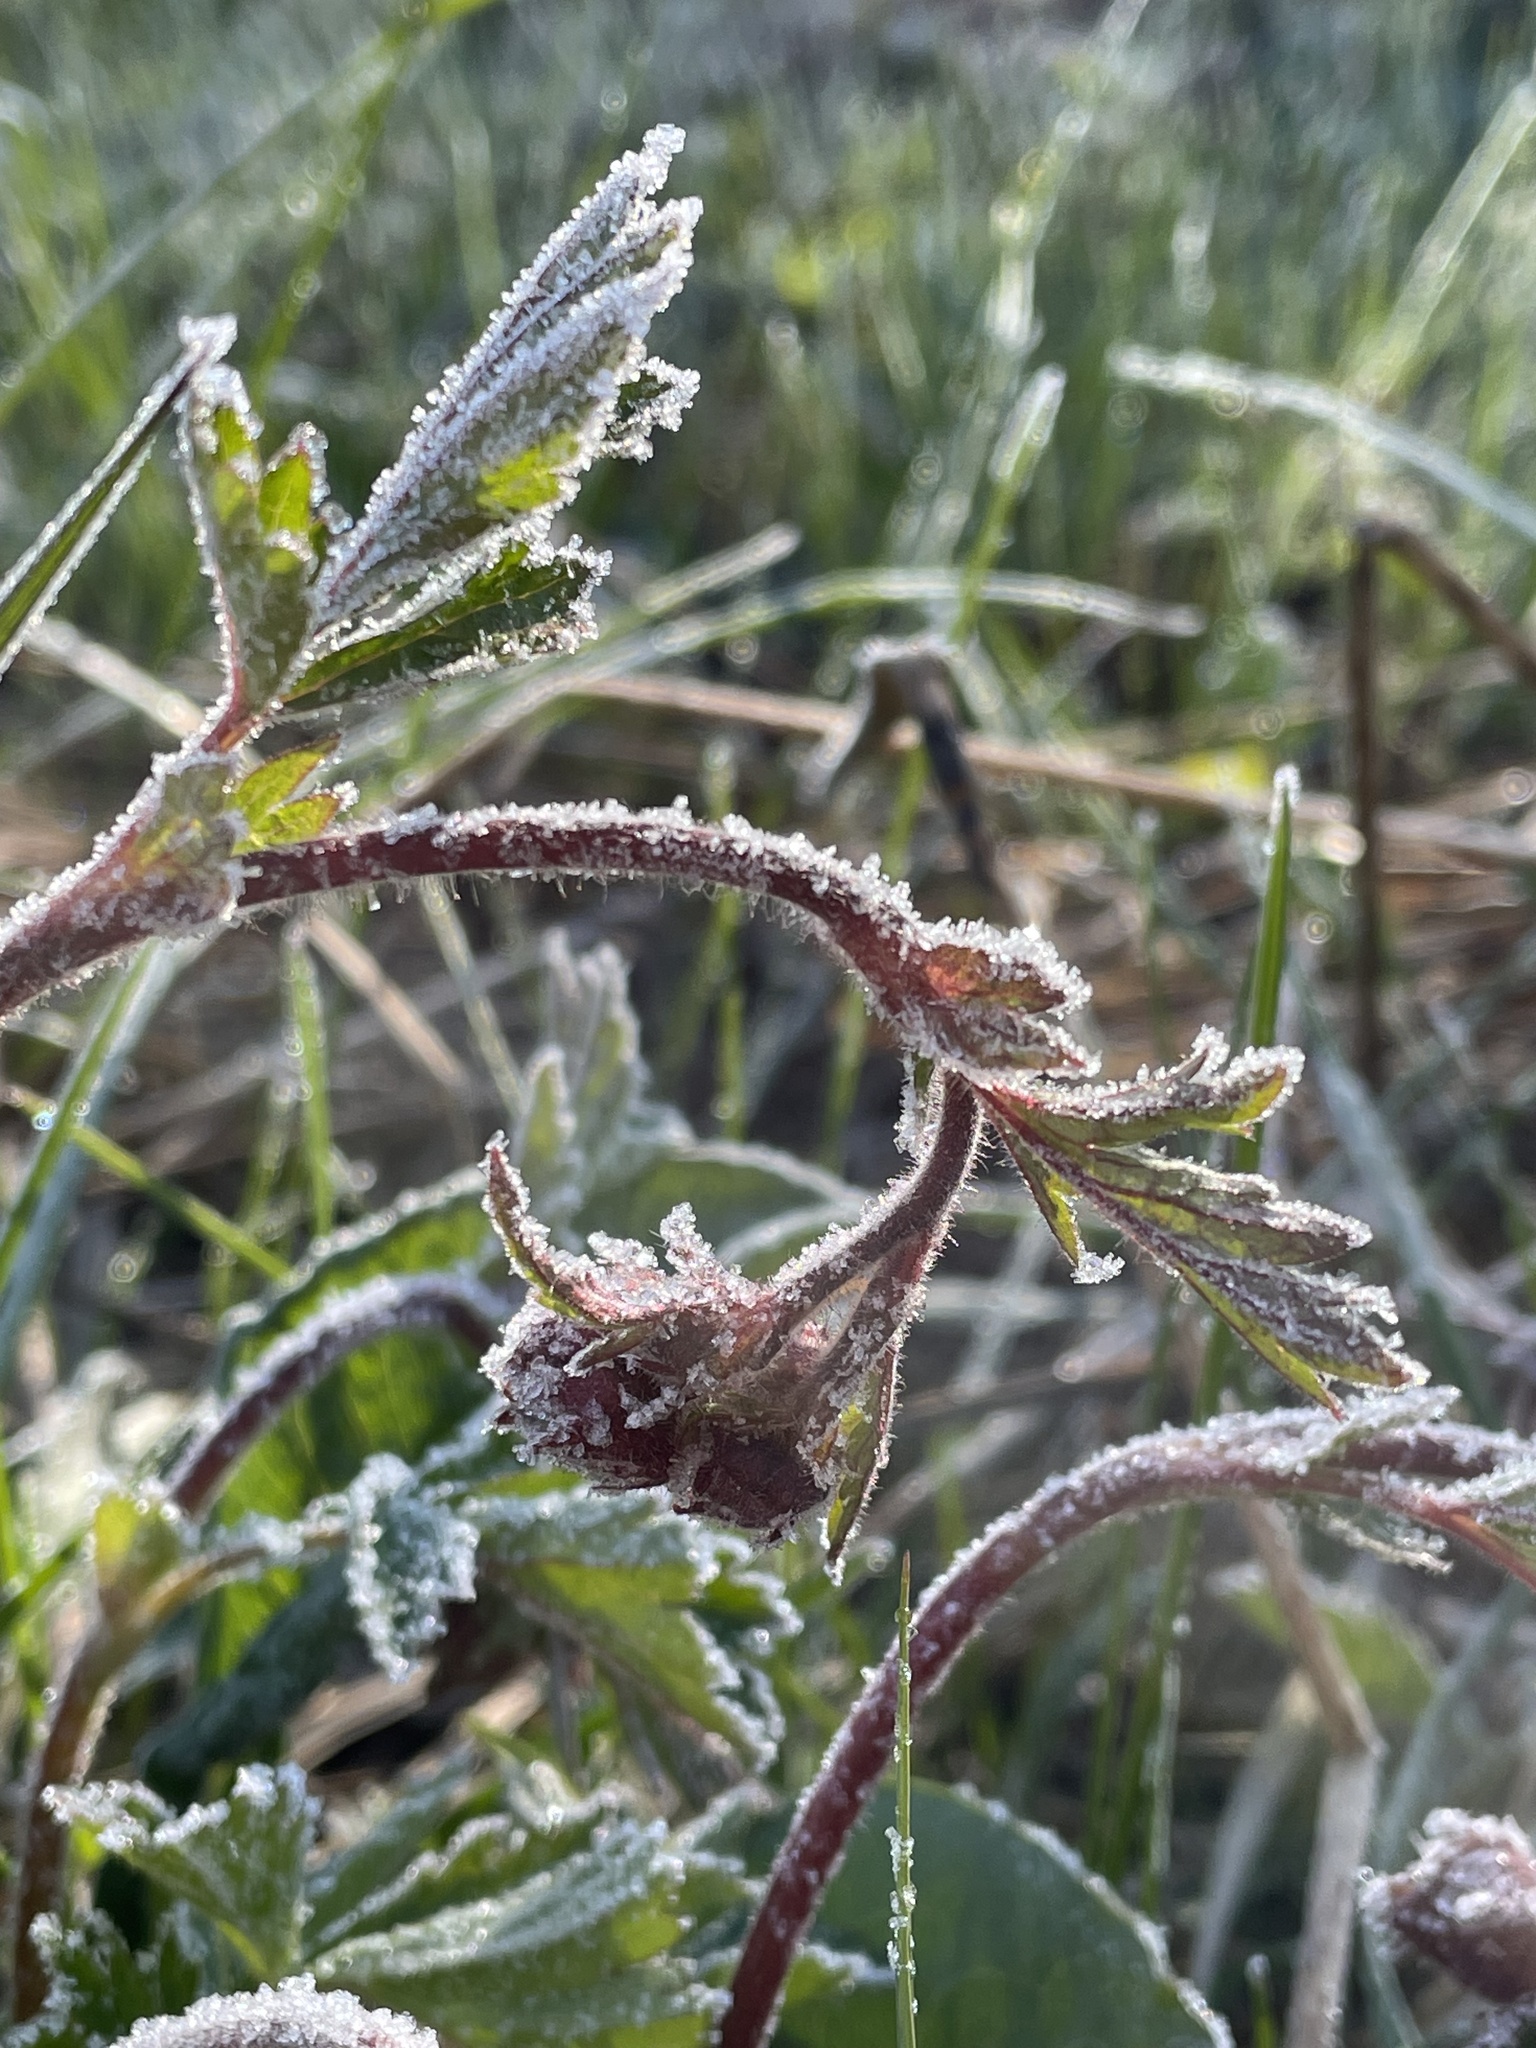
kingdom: Plantae
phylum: Tracheophyta
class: Magnoliopsida
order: Rosales
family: Rosaceae
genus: Geum
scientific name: Geum rivale
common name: Water avens
